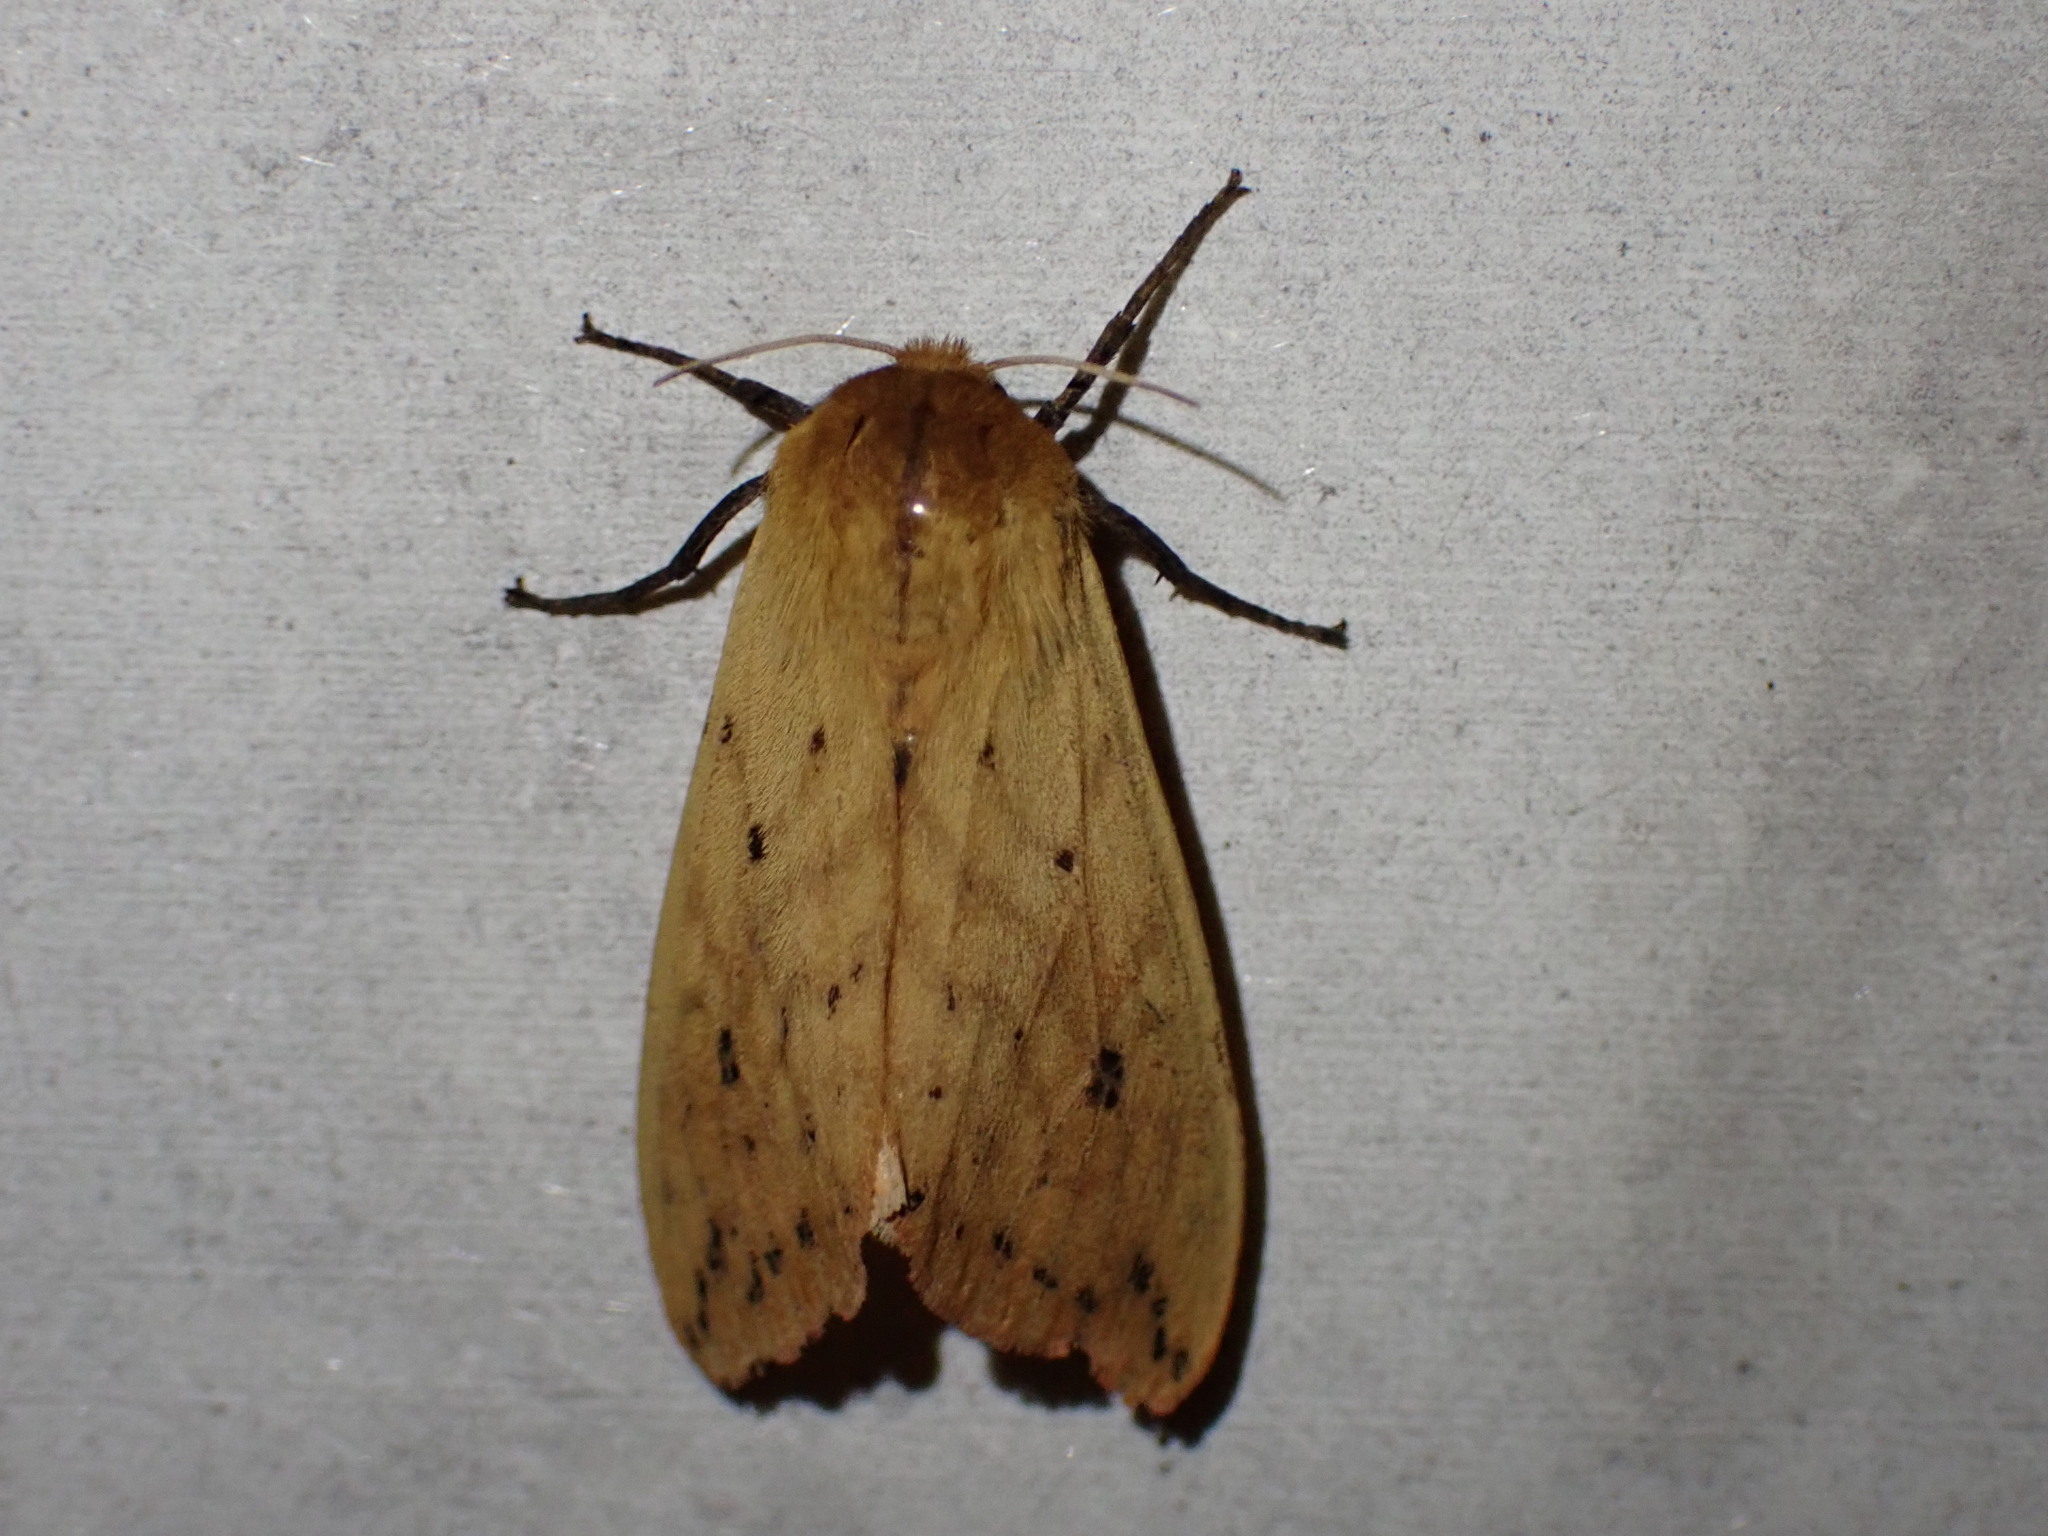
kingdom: Animalia
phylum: Arthropoda
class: Insecta
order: Lepidoptera
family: Erebidae
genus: Pyrrharctia
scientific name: Pyrrharctia isabella
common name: Isabella tiger moth
